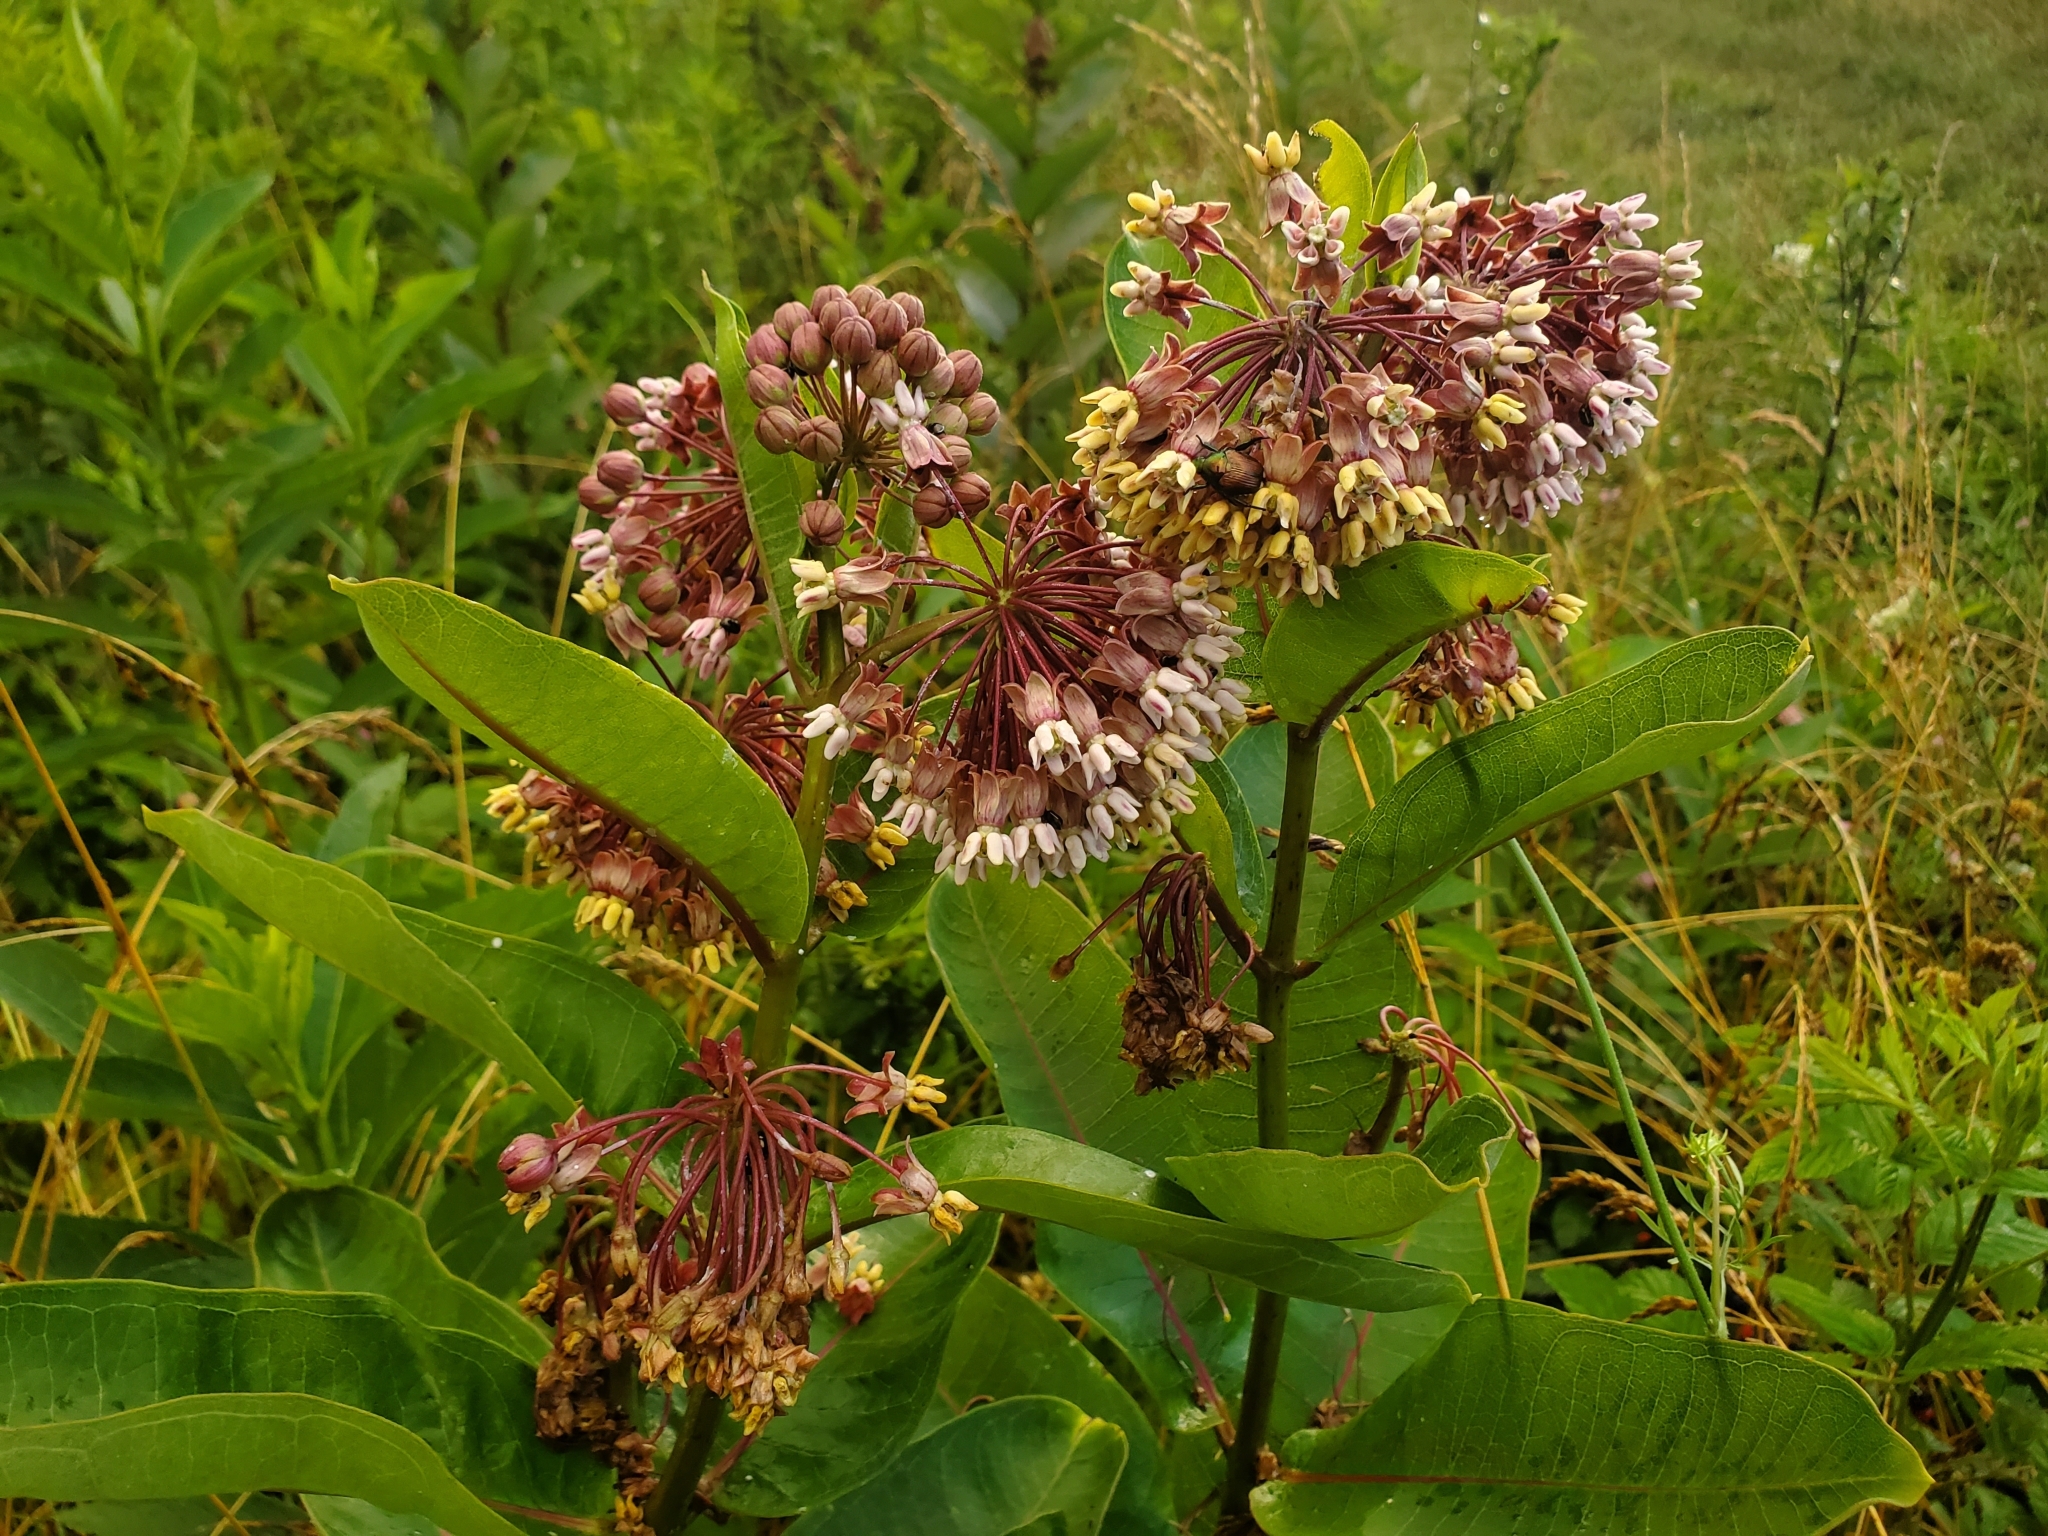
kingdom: Plantae
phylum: Tracheophyta
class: Magnoliopsida
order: Gentianales
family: Apocynaceae
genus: Asclepias
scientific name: Asclepias syriaca
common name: Common milkweed
